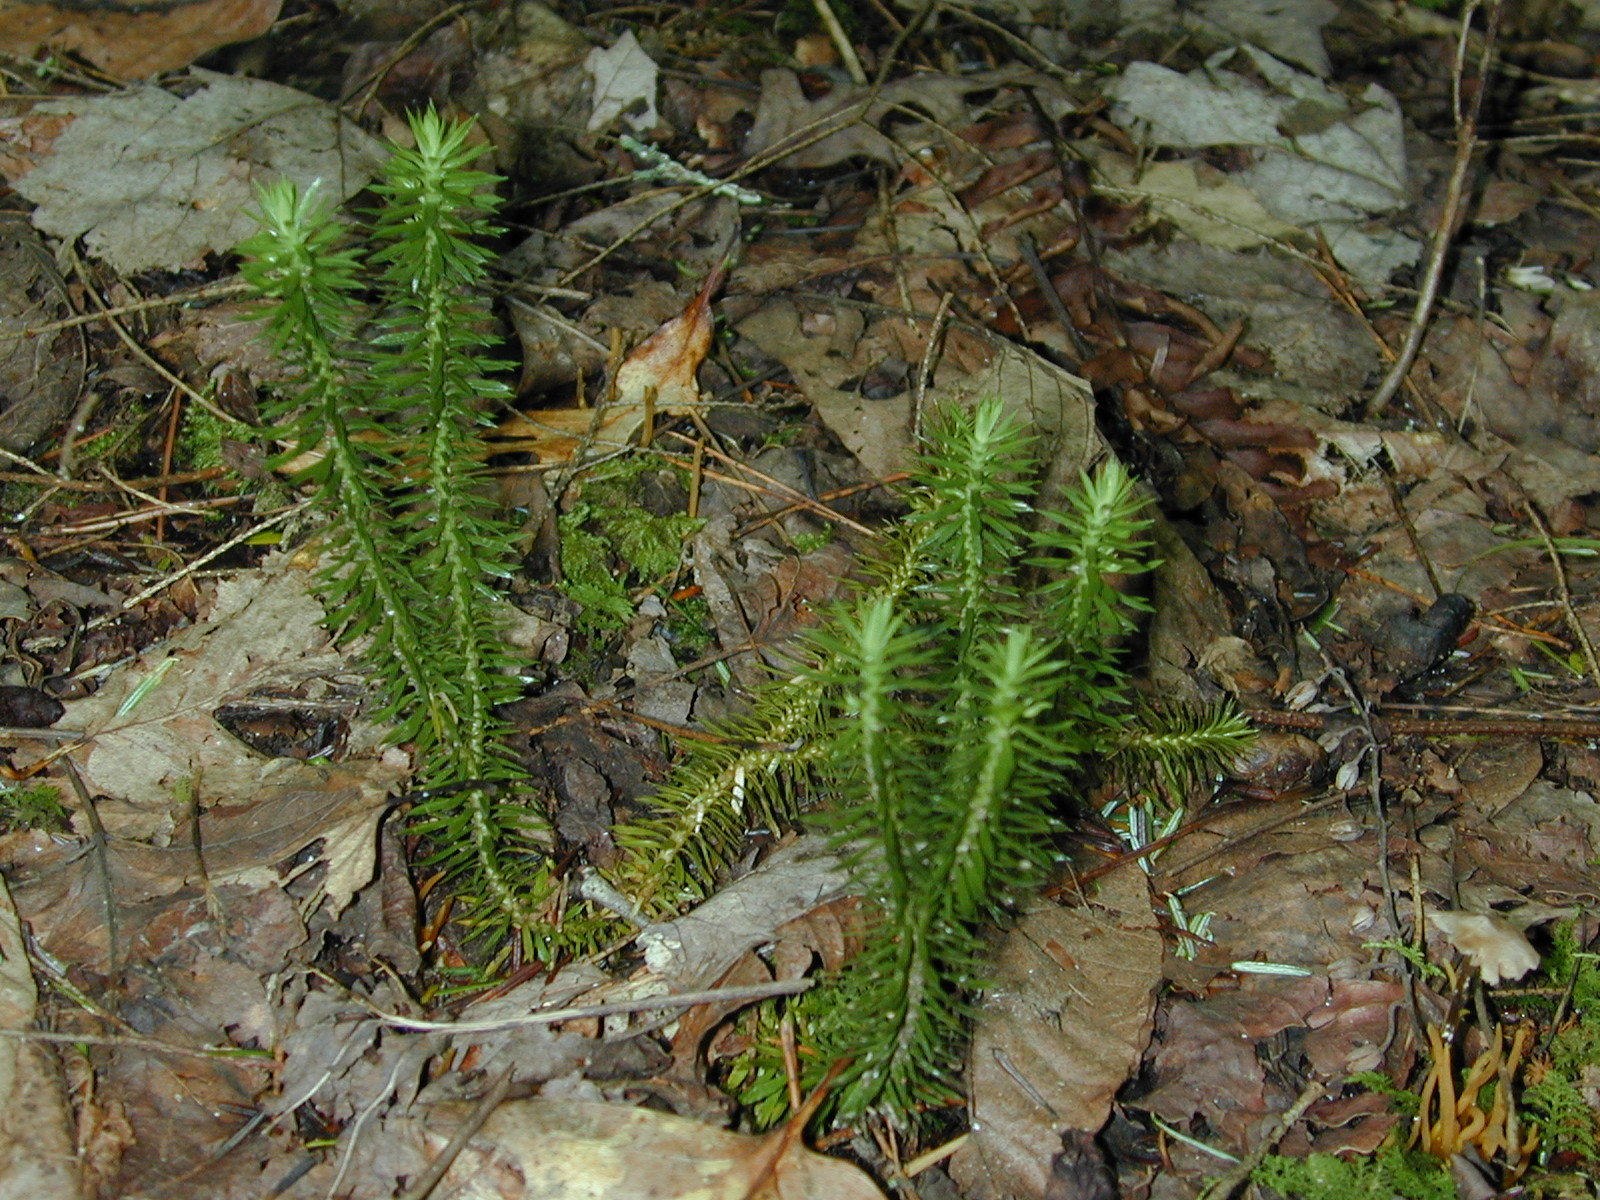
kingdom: Plantae
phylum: Tracheophyta
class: Lycopodiopsida
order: Lycopodiales
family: Lycopodiaceae
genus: Huperzia
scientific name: Huperzia lucidula
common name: Shining clubmoss
